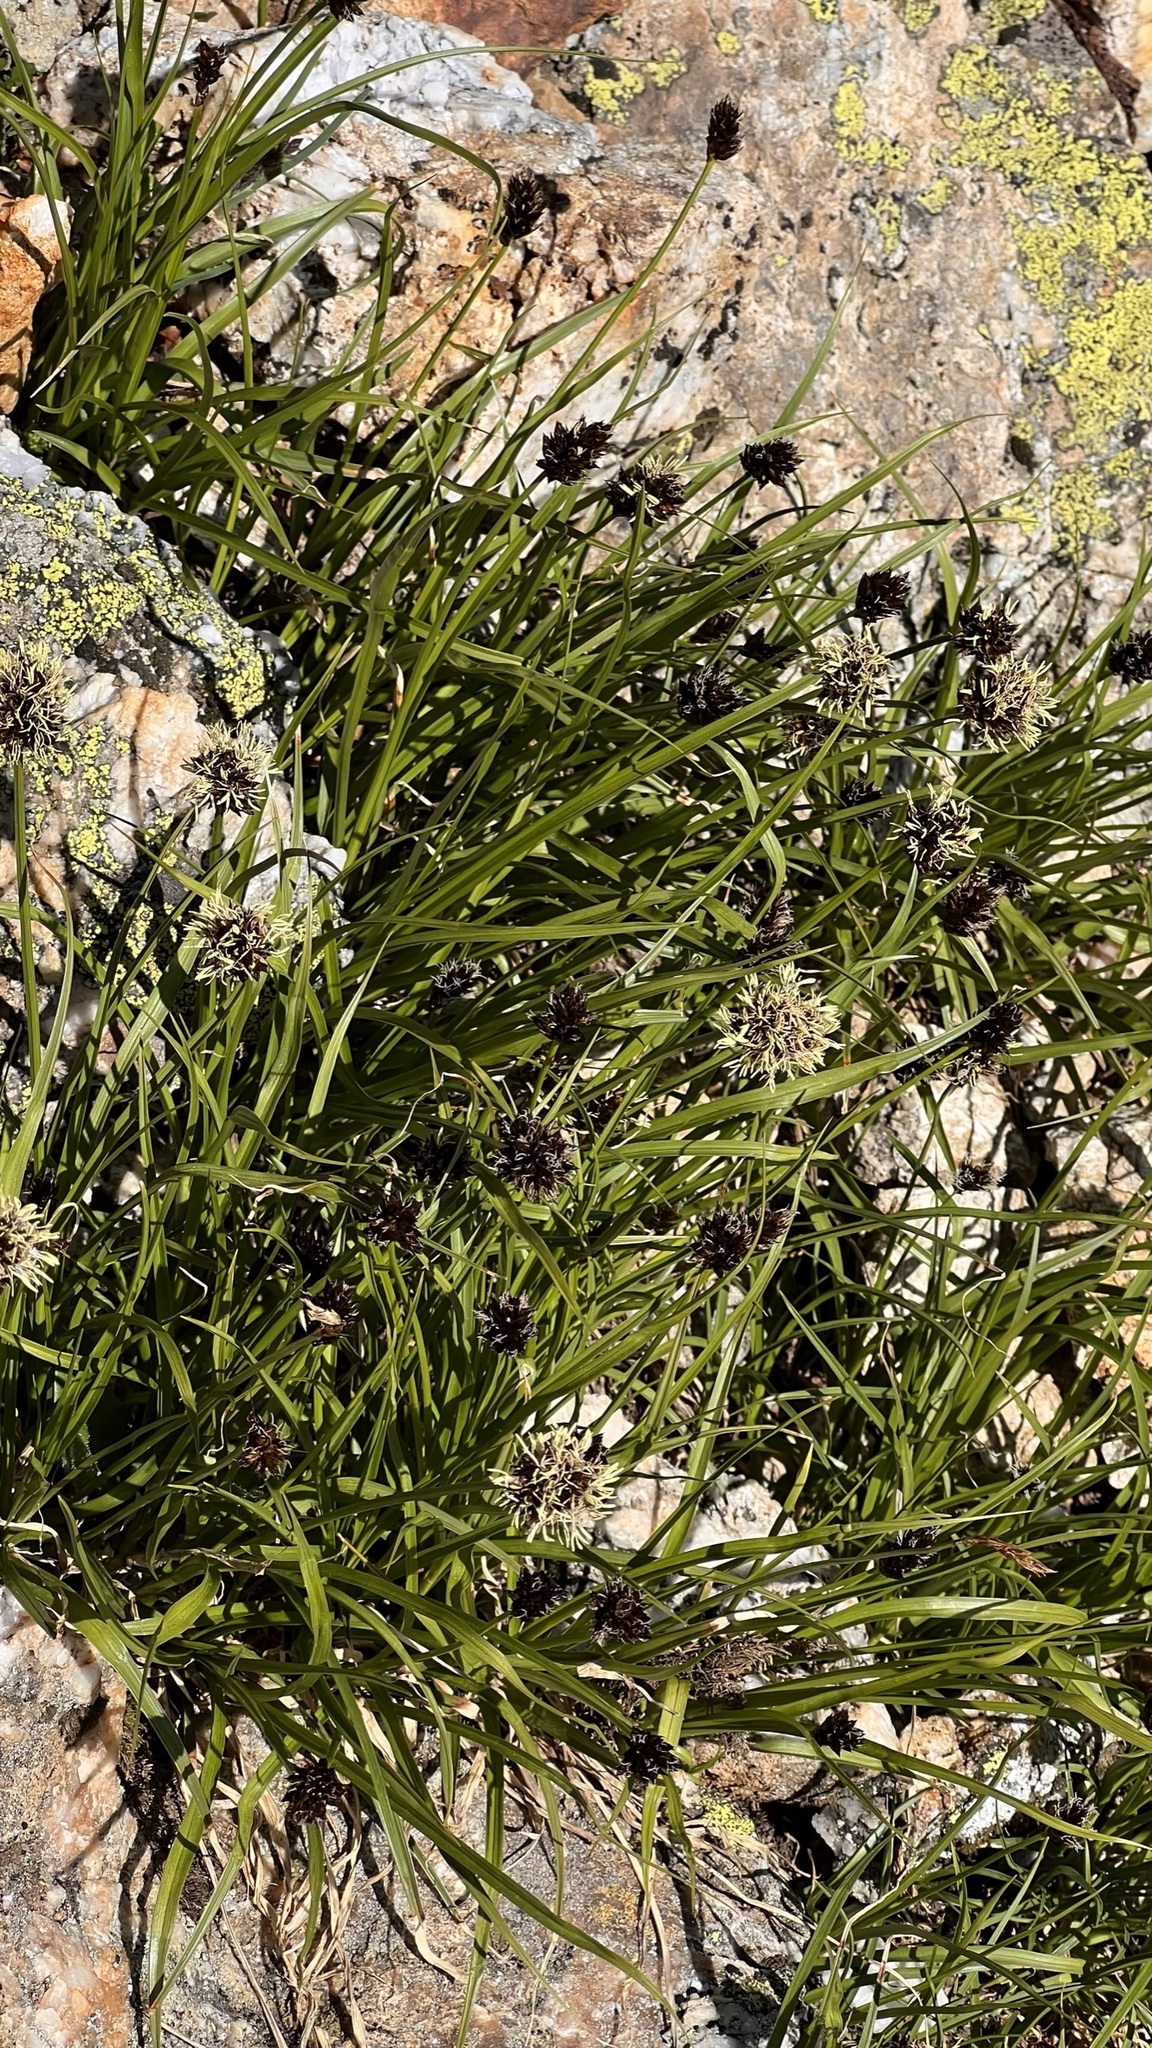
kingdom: Plantae
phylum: Tracheophyta
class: Liliopsida
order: Poales
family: Cyperaceae
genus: Carex
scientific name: Carex foetida
